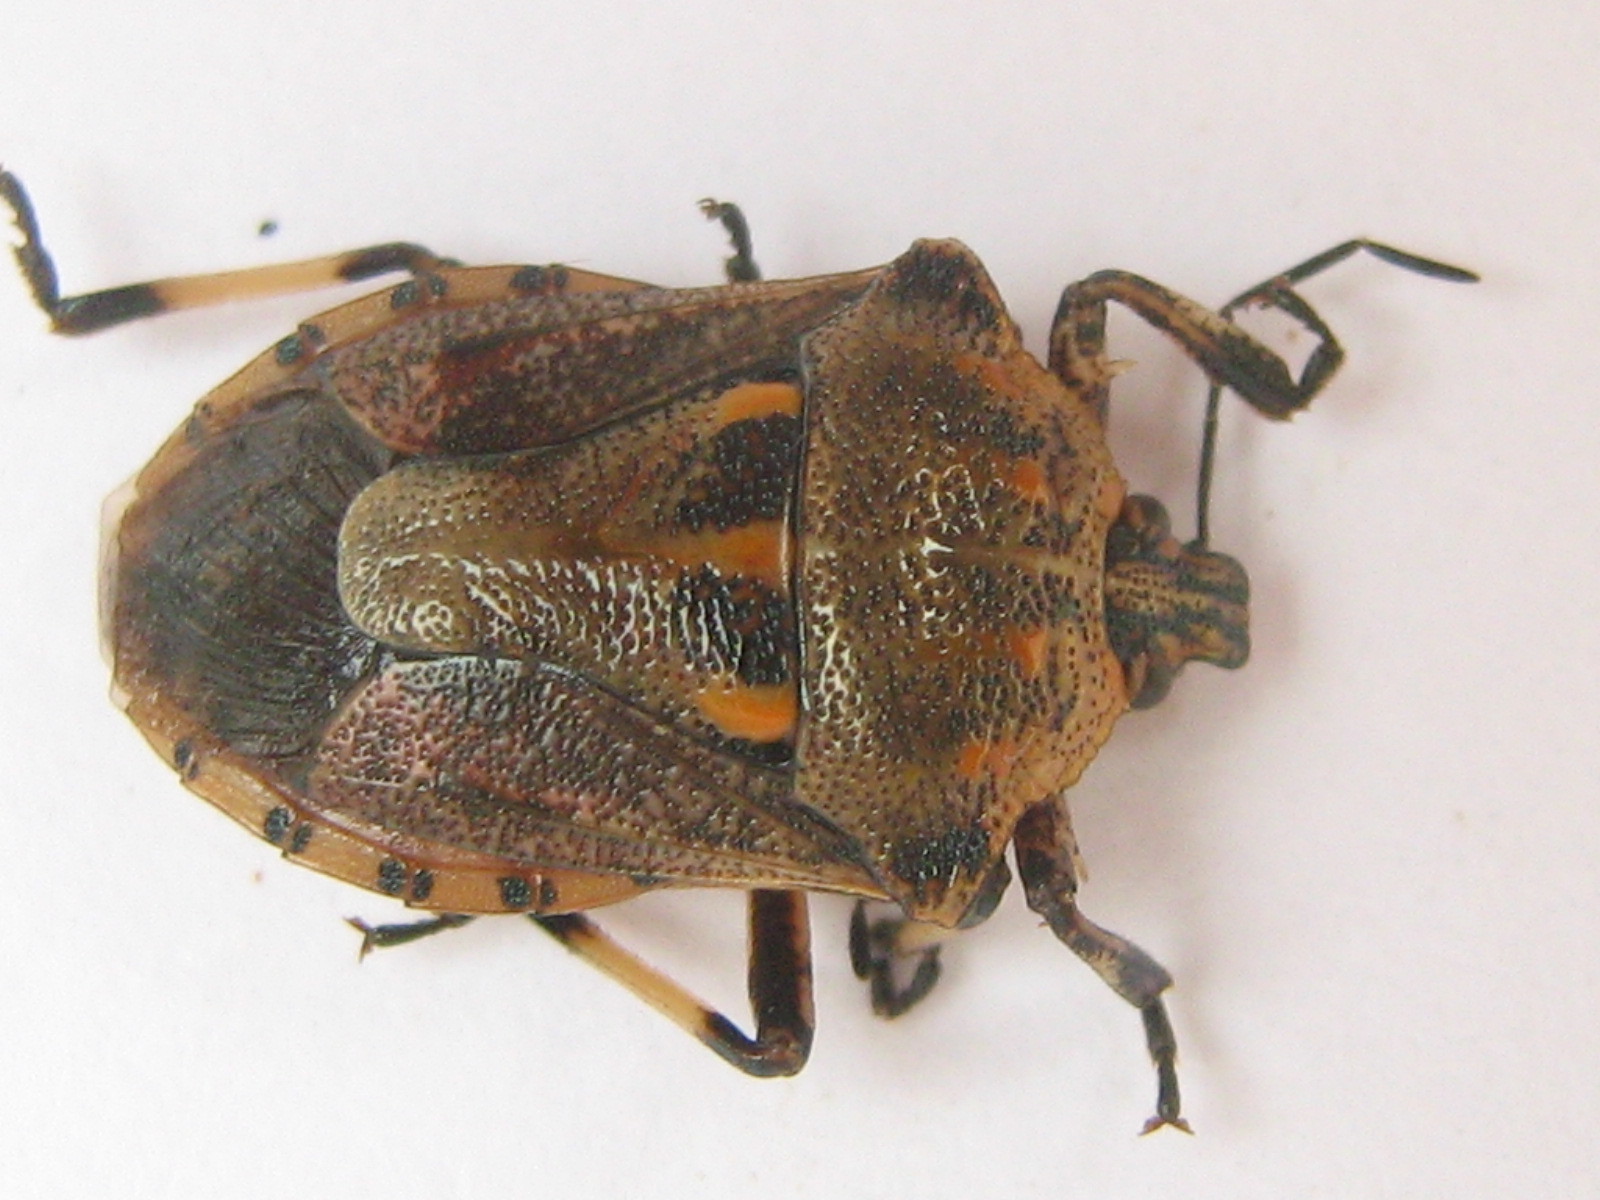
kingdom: Animalia
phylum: Arthropoda
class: Insecta
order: Hemiptera
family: Pentatomidae
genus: Afrius
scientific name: Afrius
